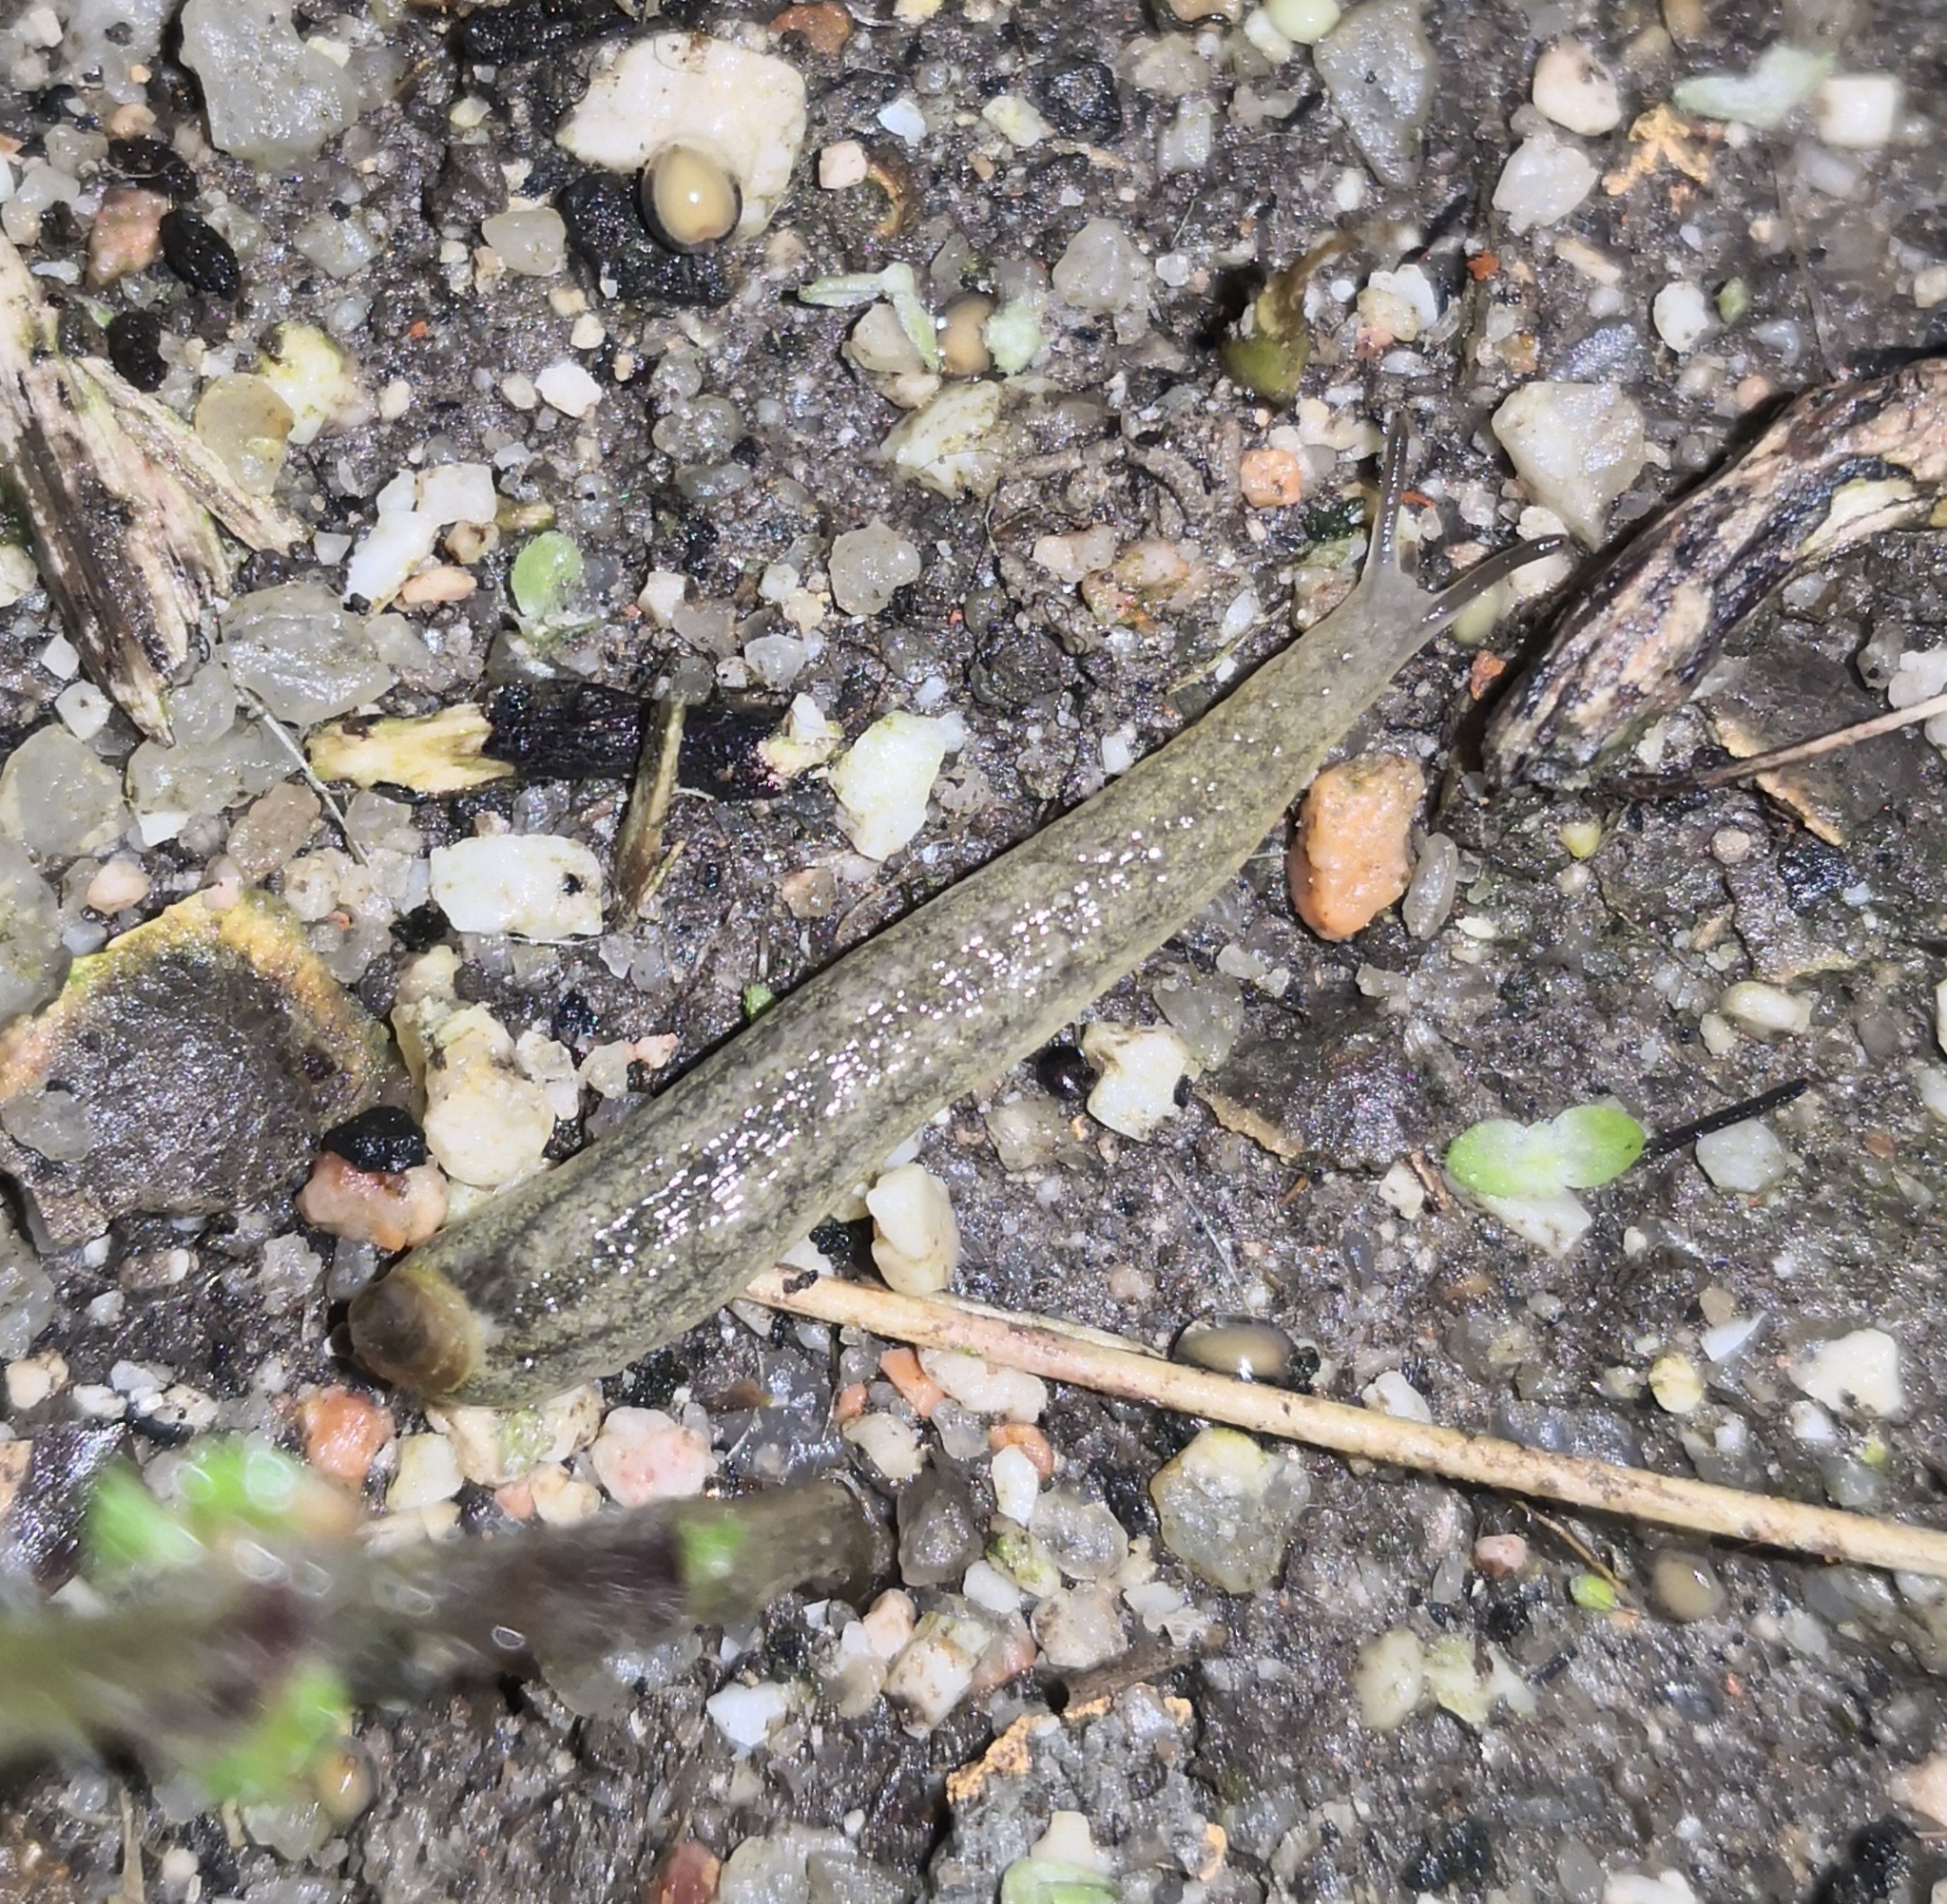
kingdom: Animalia
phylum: Mollusca
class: Gastropoda
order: Stylommatophora
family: Testacellidae
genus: Testacella
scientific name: Testacella haliotidea
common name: Shelled slug
